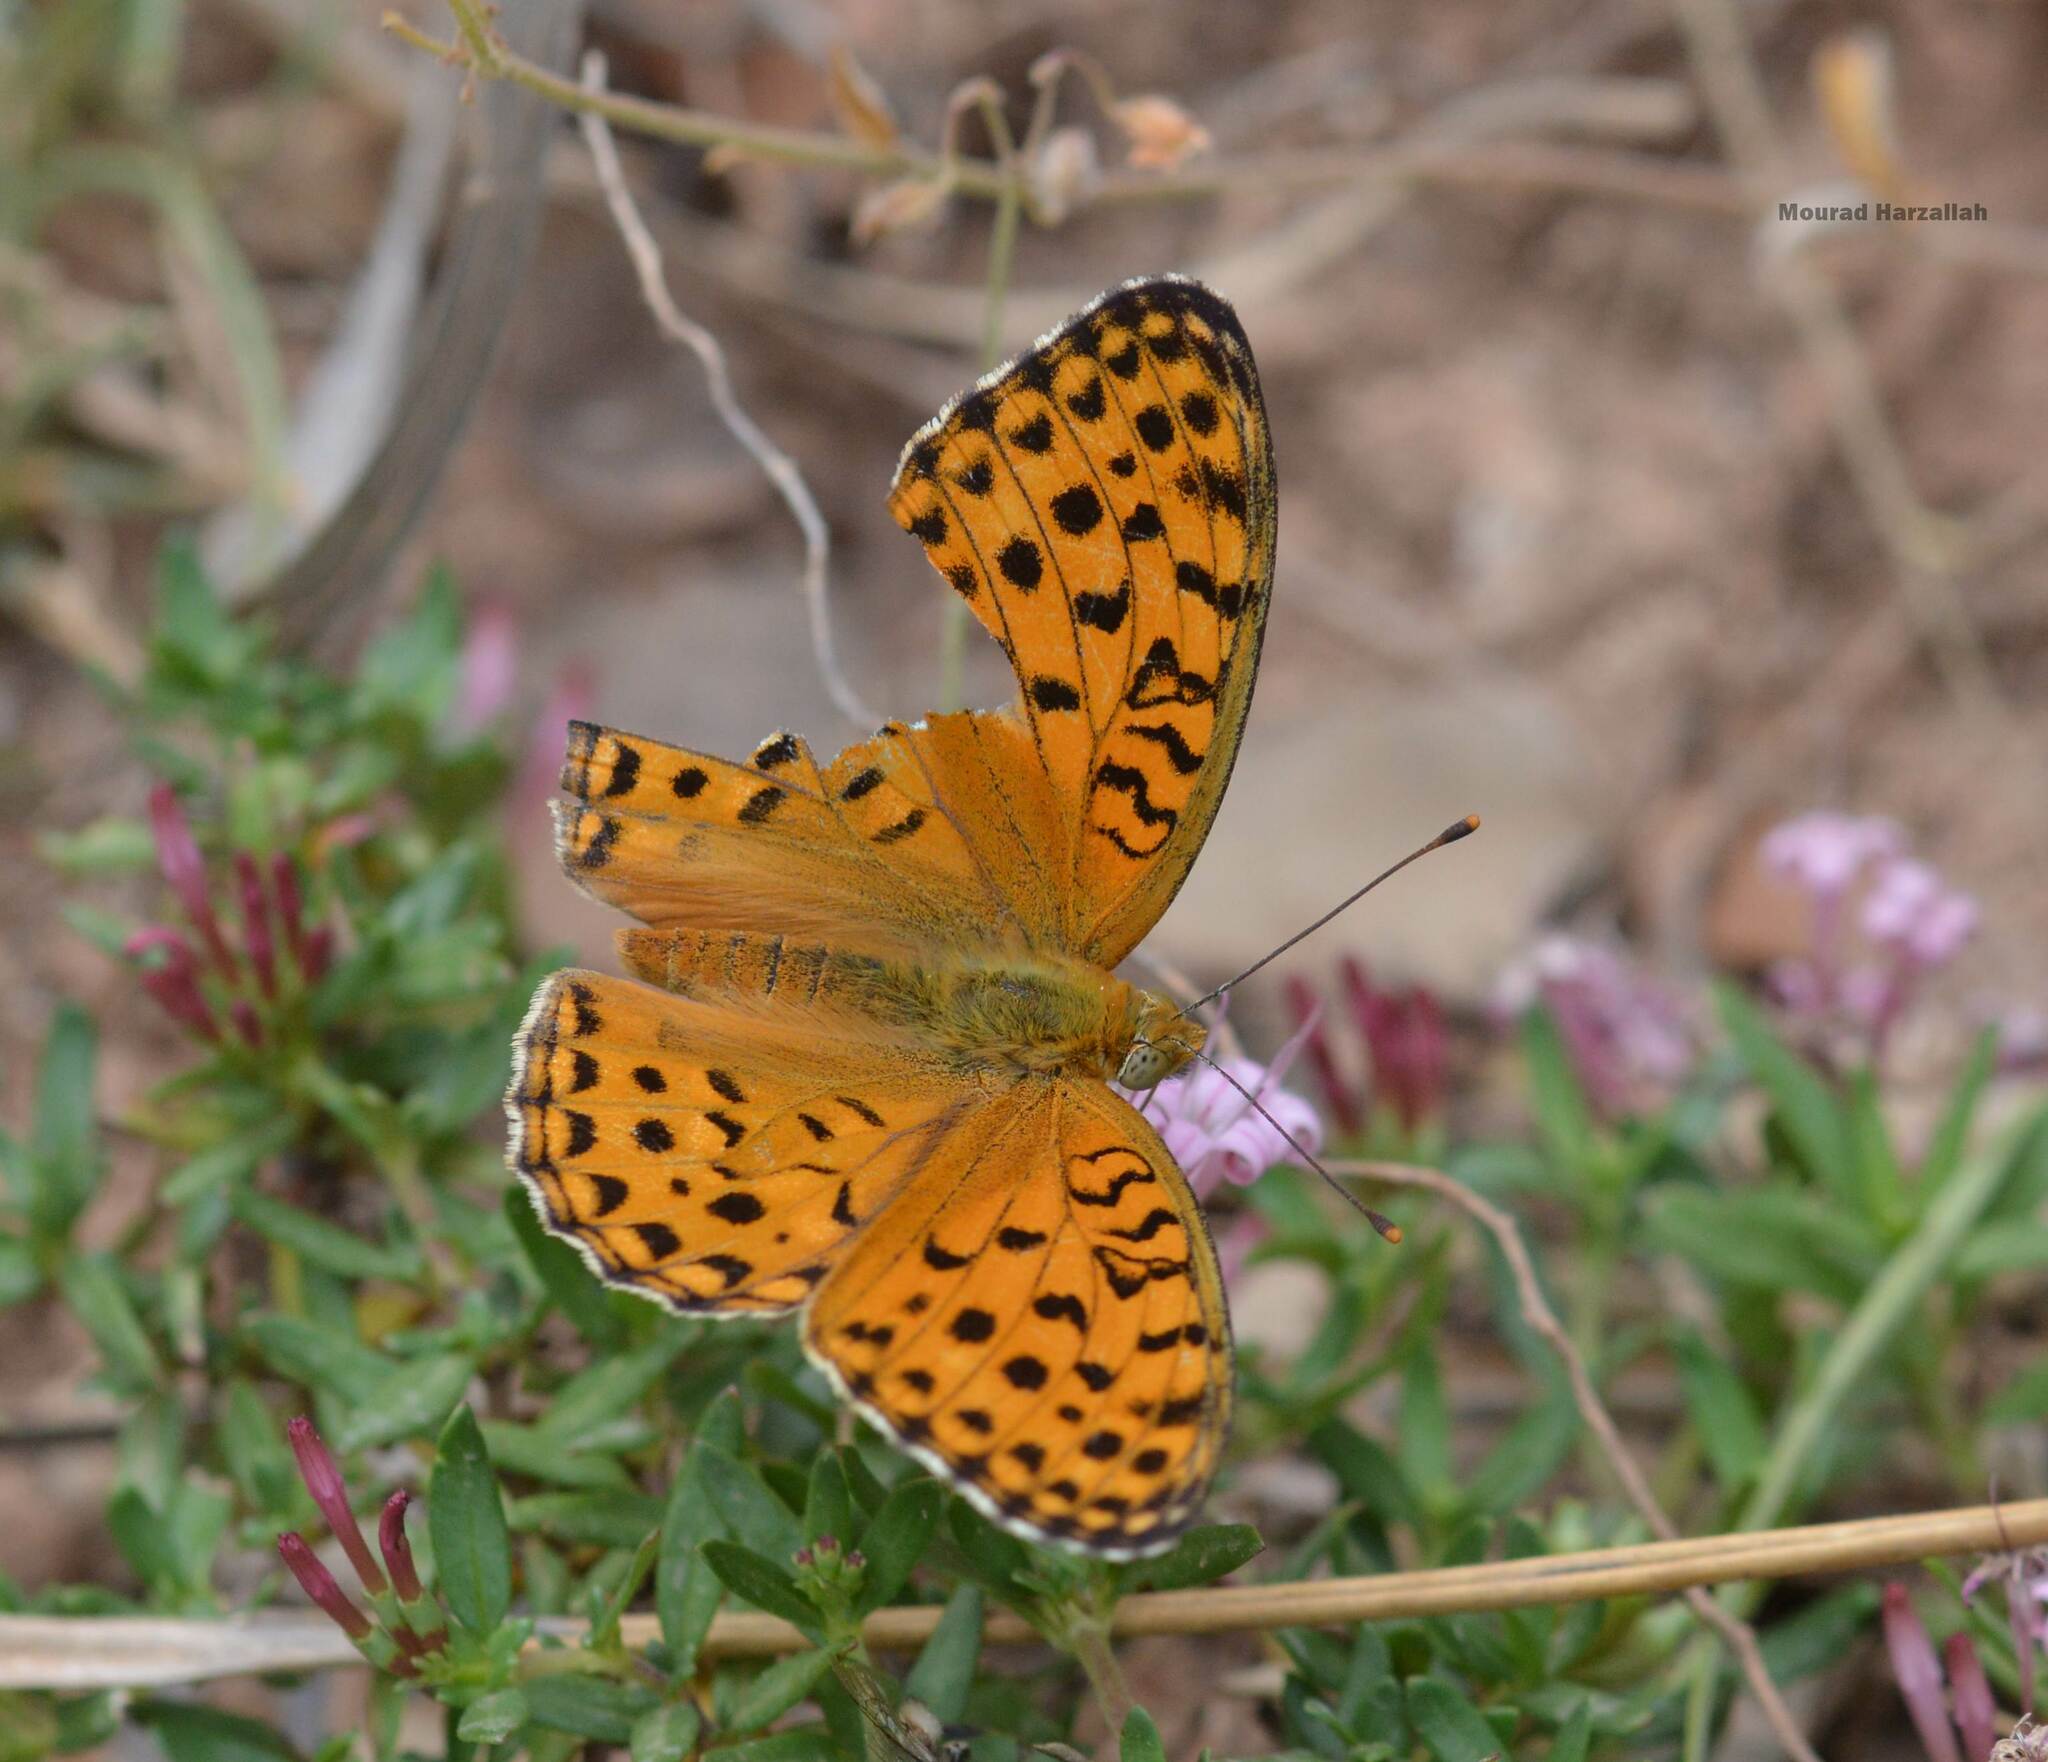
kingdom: Animalia
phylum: Arthropoda
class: Insecta
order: Lepidoptera
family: Nymphalidae
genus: Fabriciana
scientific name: Fabriciana
